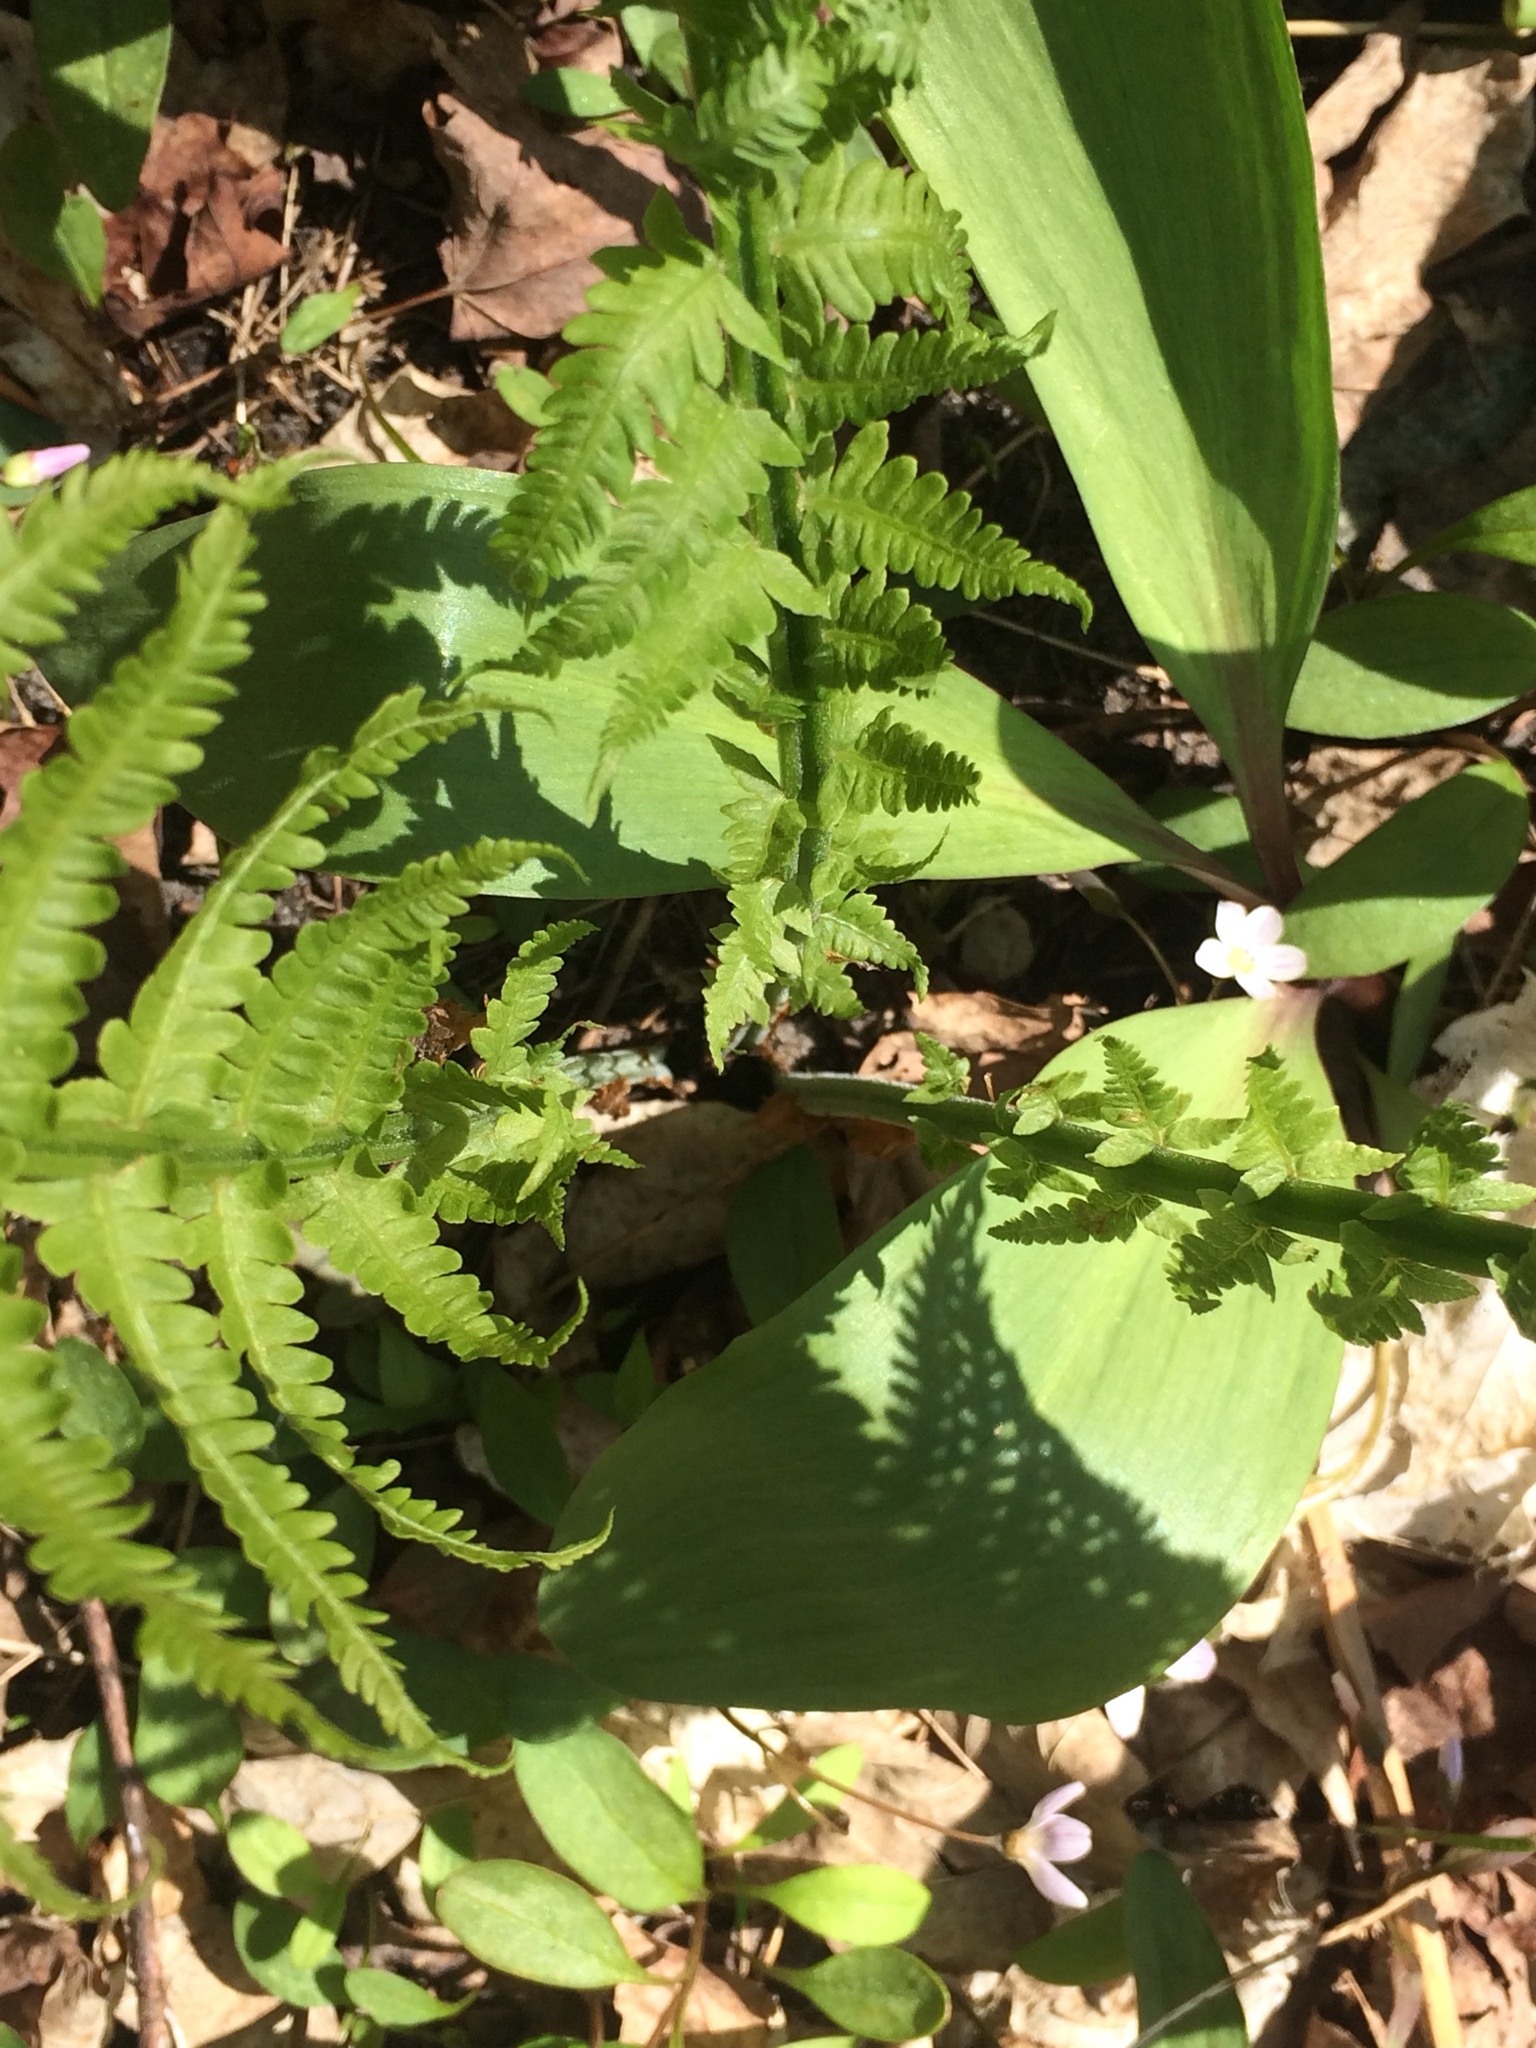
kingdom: Plantae
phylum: Tracheophyta
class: Polypodiopsida
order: Polypodiales
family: Onocleaceae
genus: Matteuccia
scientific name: Matteuccia struthiopteris
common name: Ostrich fern
